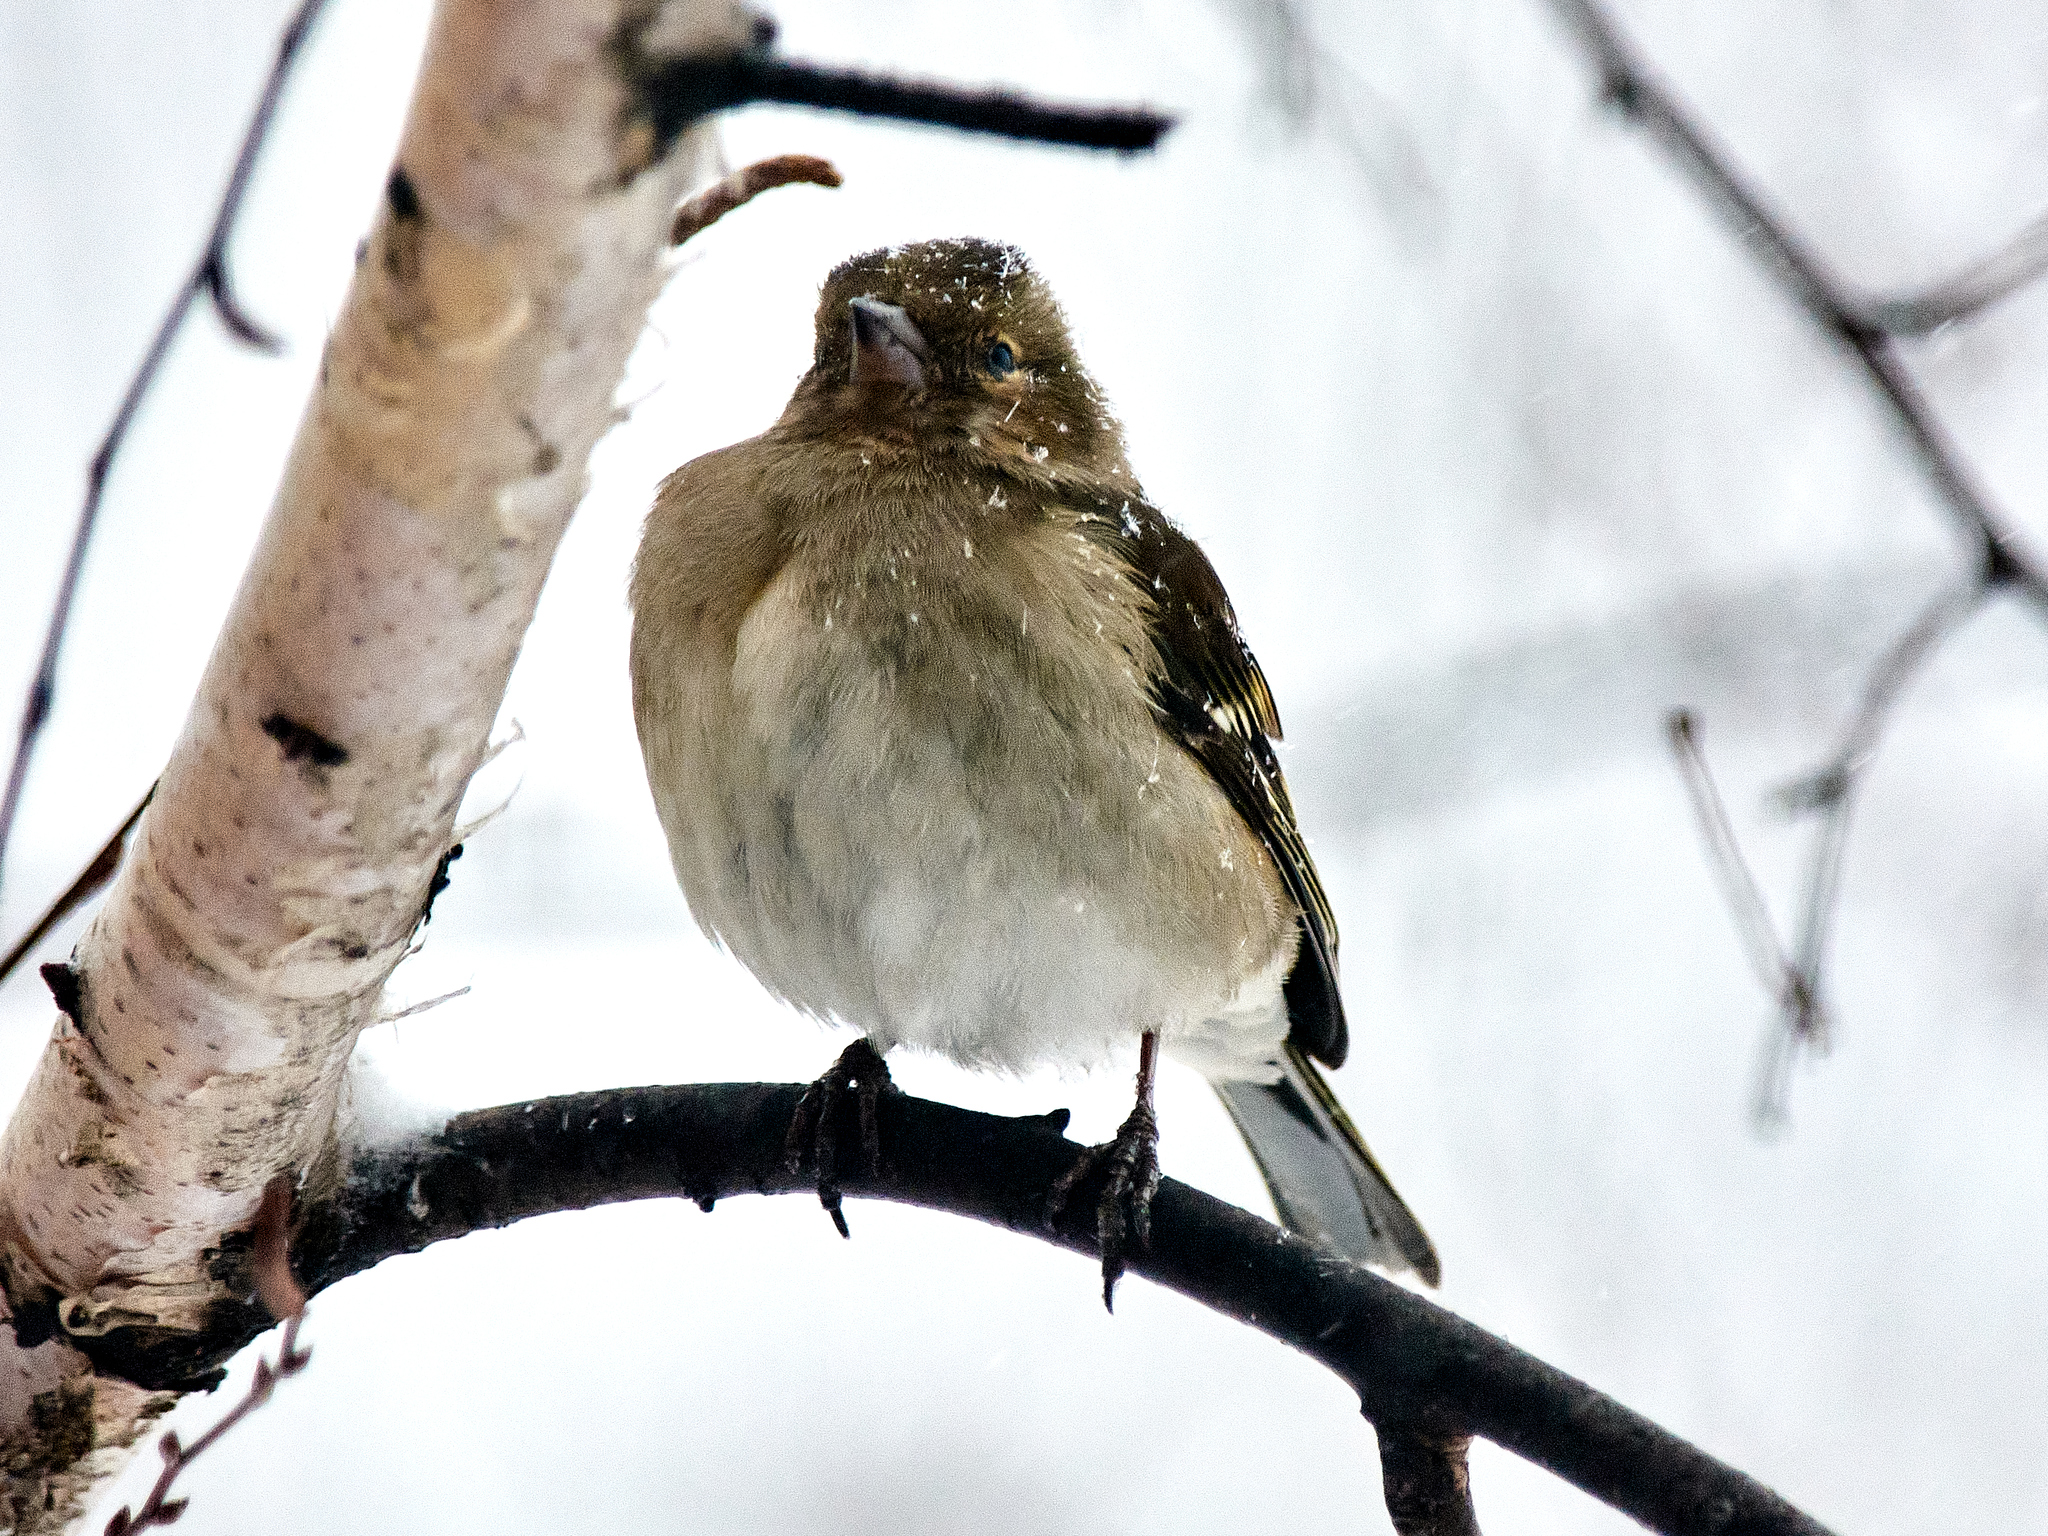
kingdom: Animalia
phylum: Chordata
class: Aves
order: Passeriformes
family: Fringillidae
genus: Fringilla
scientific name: Fringilla coelebs
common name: Common chaffinch
